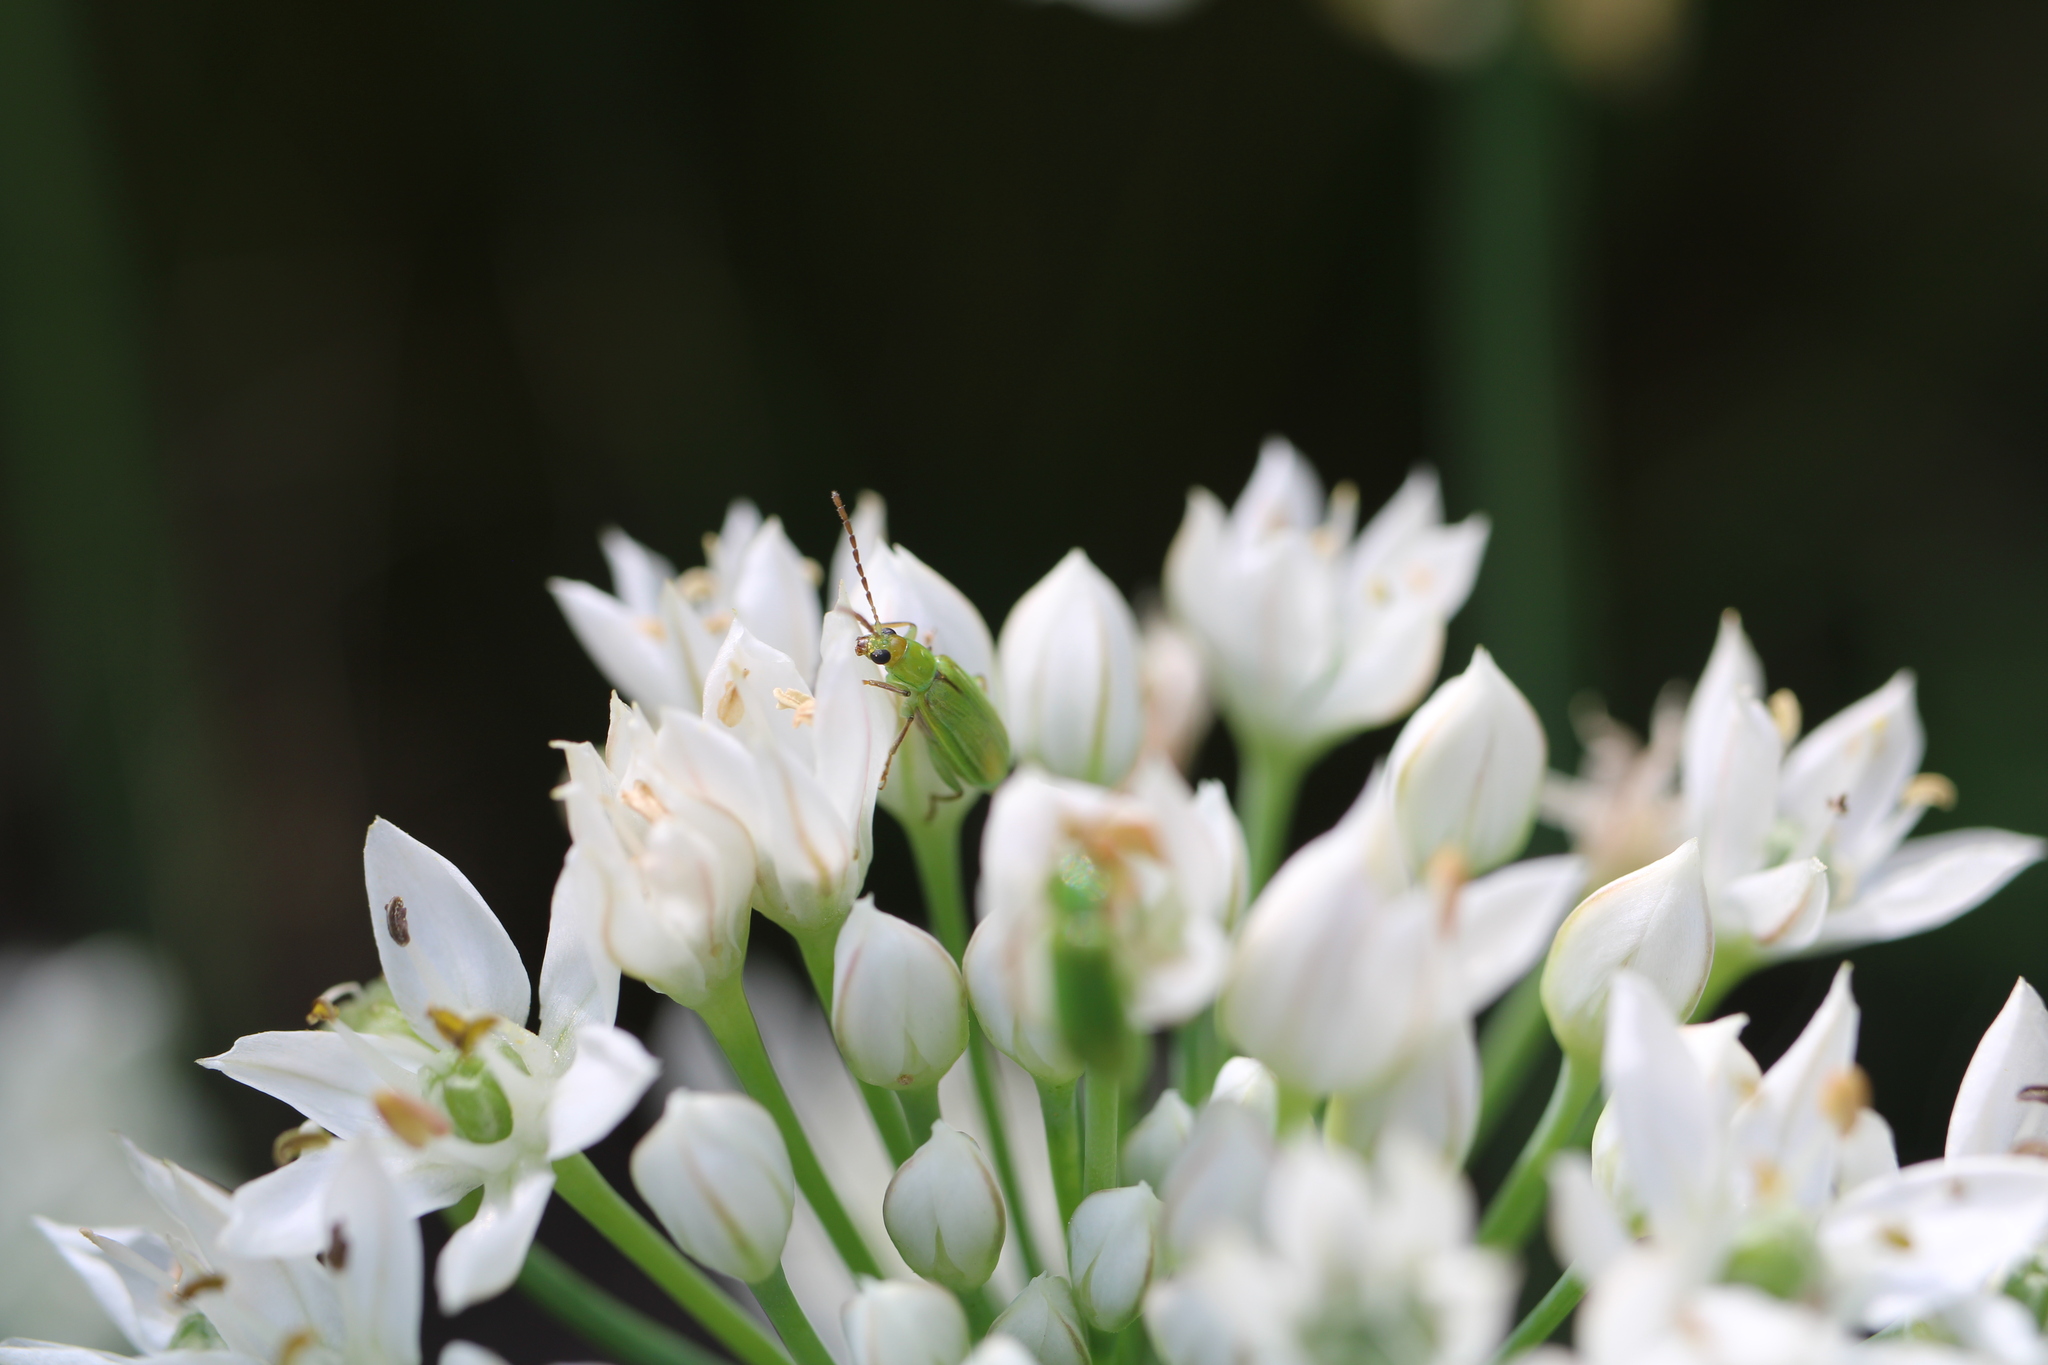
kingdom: Animalia
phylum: Arthropoda
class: Insecta
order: Coleoptera
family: Chrysomelidae
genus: Diabrotica
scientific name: Diabrotica barberi
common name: Northern corn rootworm
